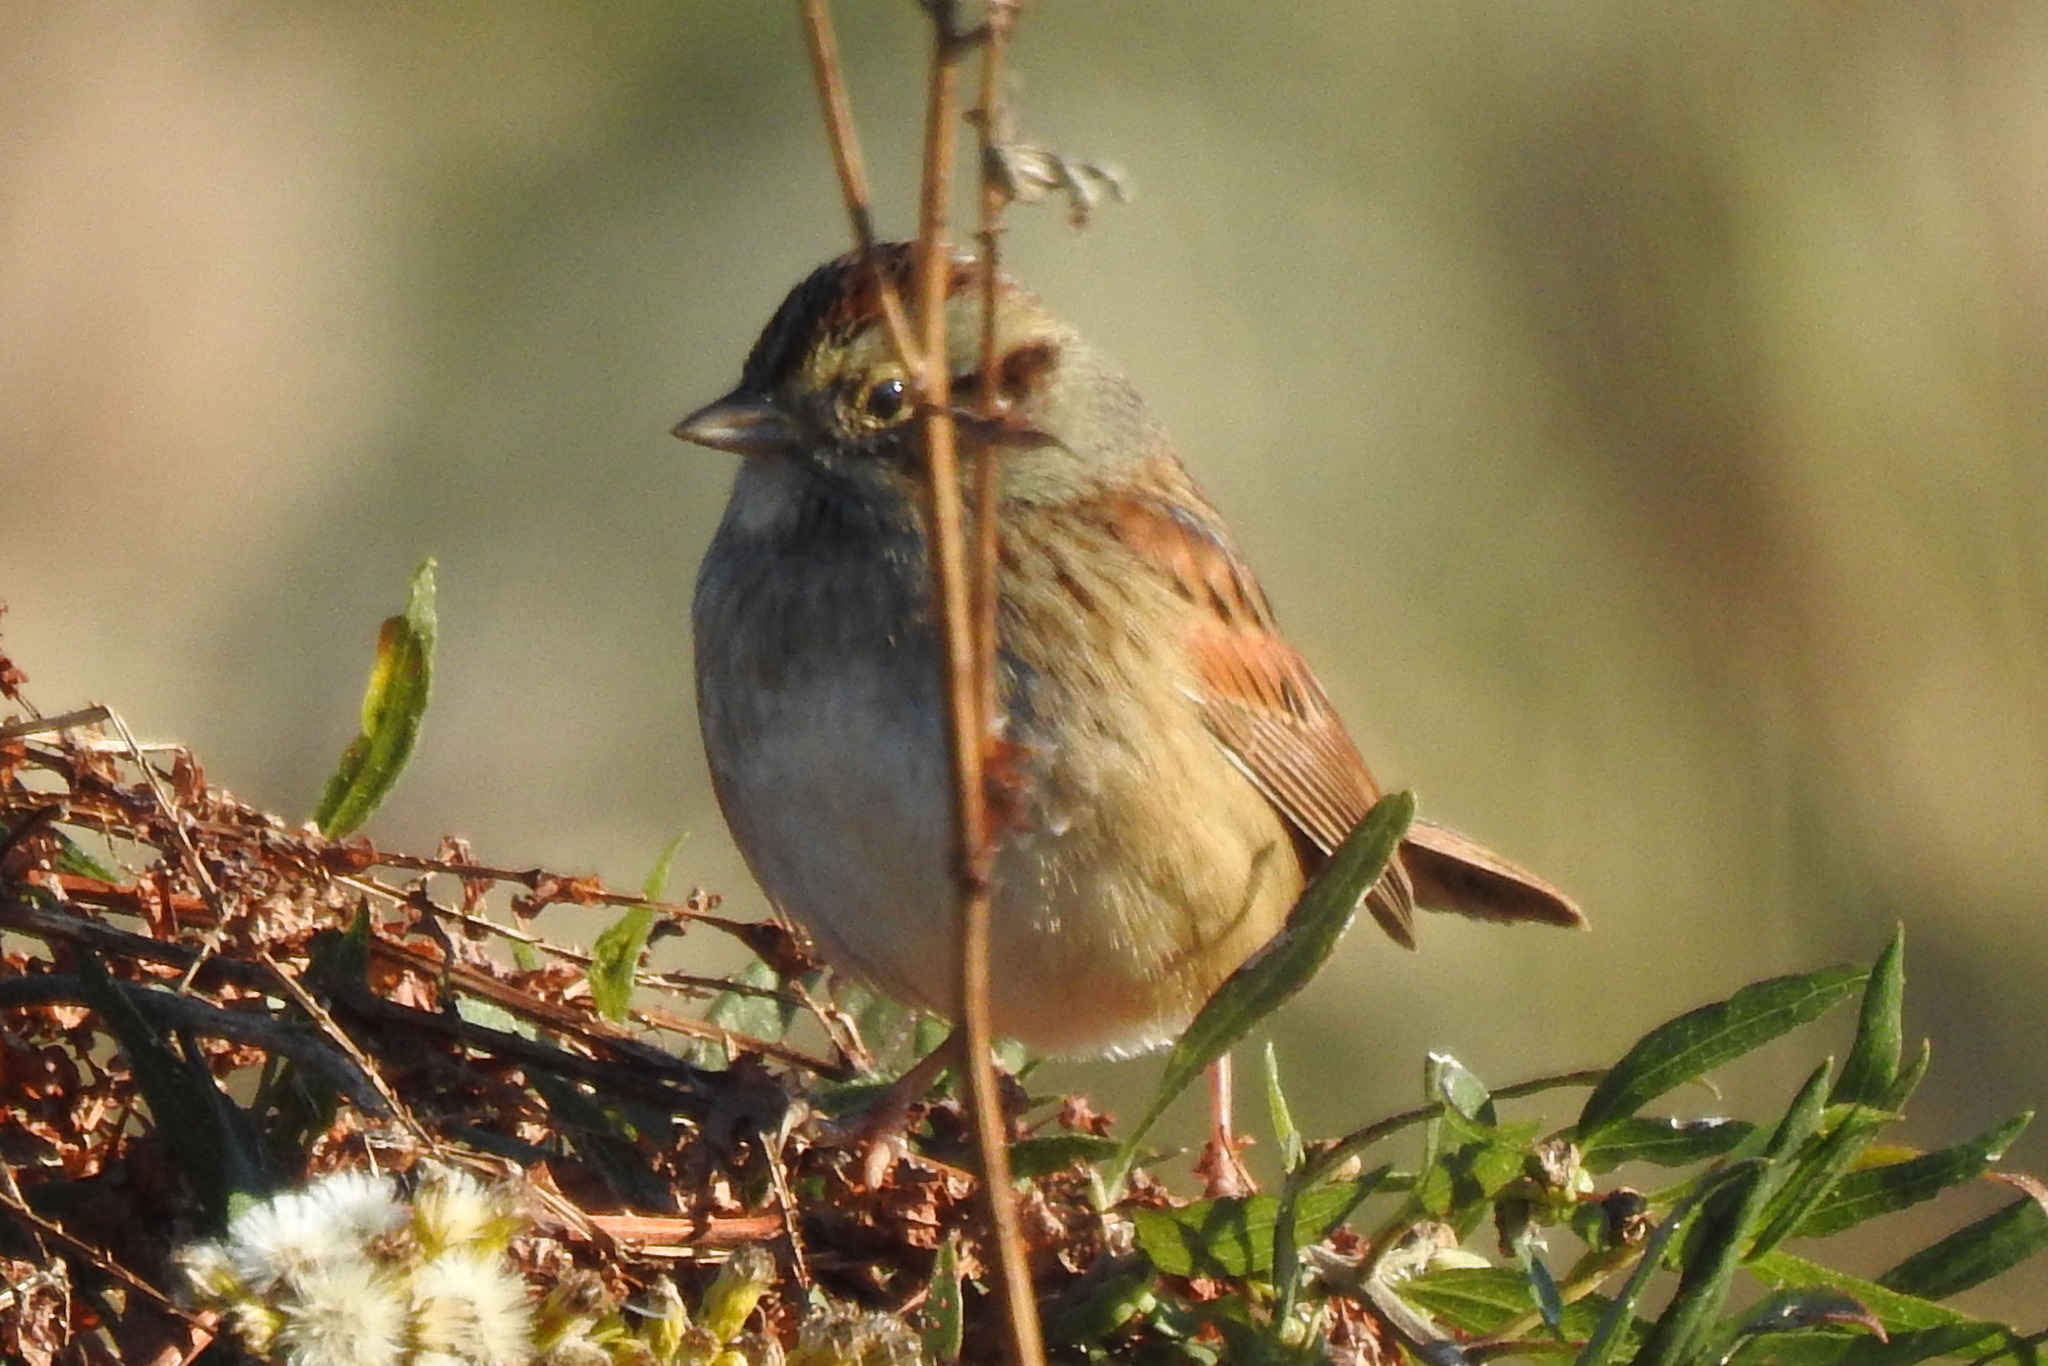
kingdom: Animalia
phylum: Chordata
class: Aves
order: Passeriformes
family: Passerellidae
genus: Melospiza
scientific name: Melospiza georgiana
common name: Swamp sparrow
